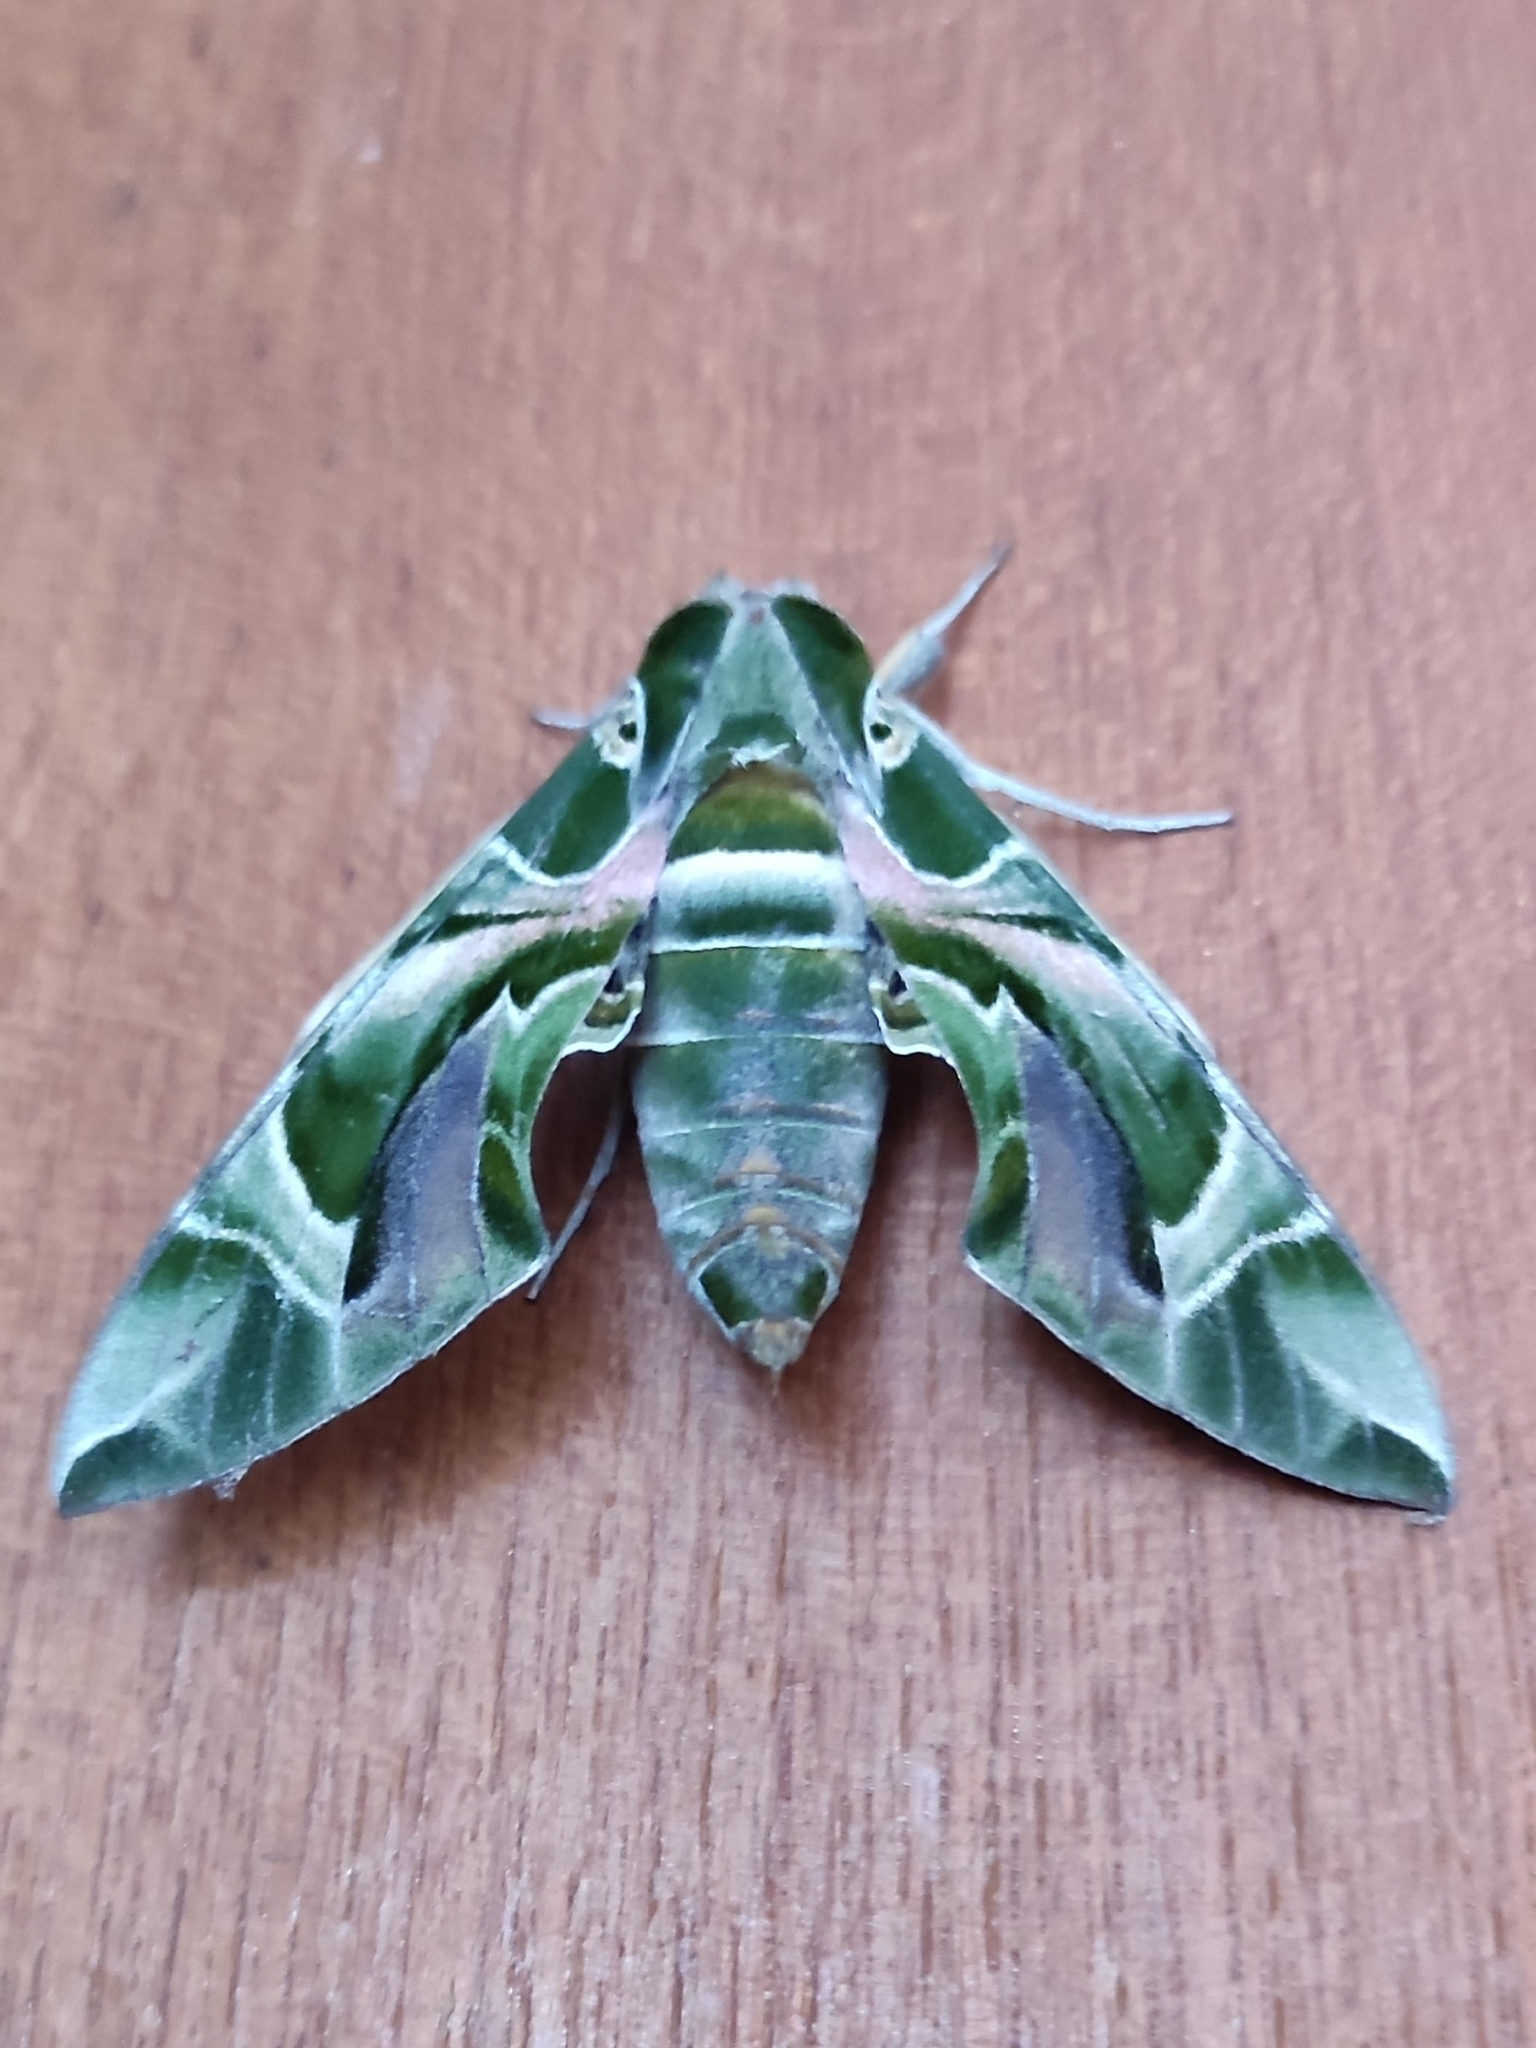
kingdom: Animalia
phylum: Arthropoda
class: Insecta
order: Lepidoptera
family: Sphingidae
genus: Daphnis
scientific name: Daphnis nerii
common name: Oleander hawk-moth
